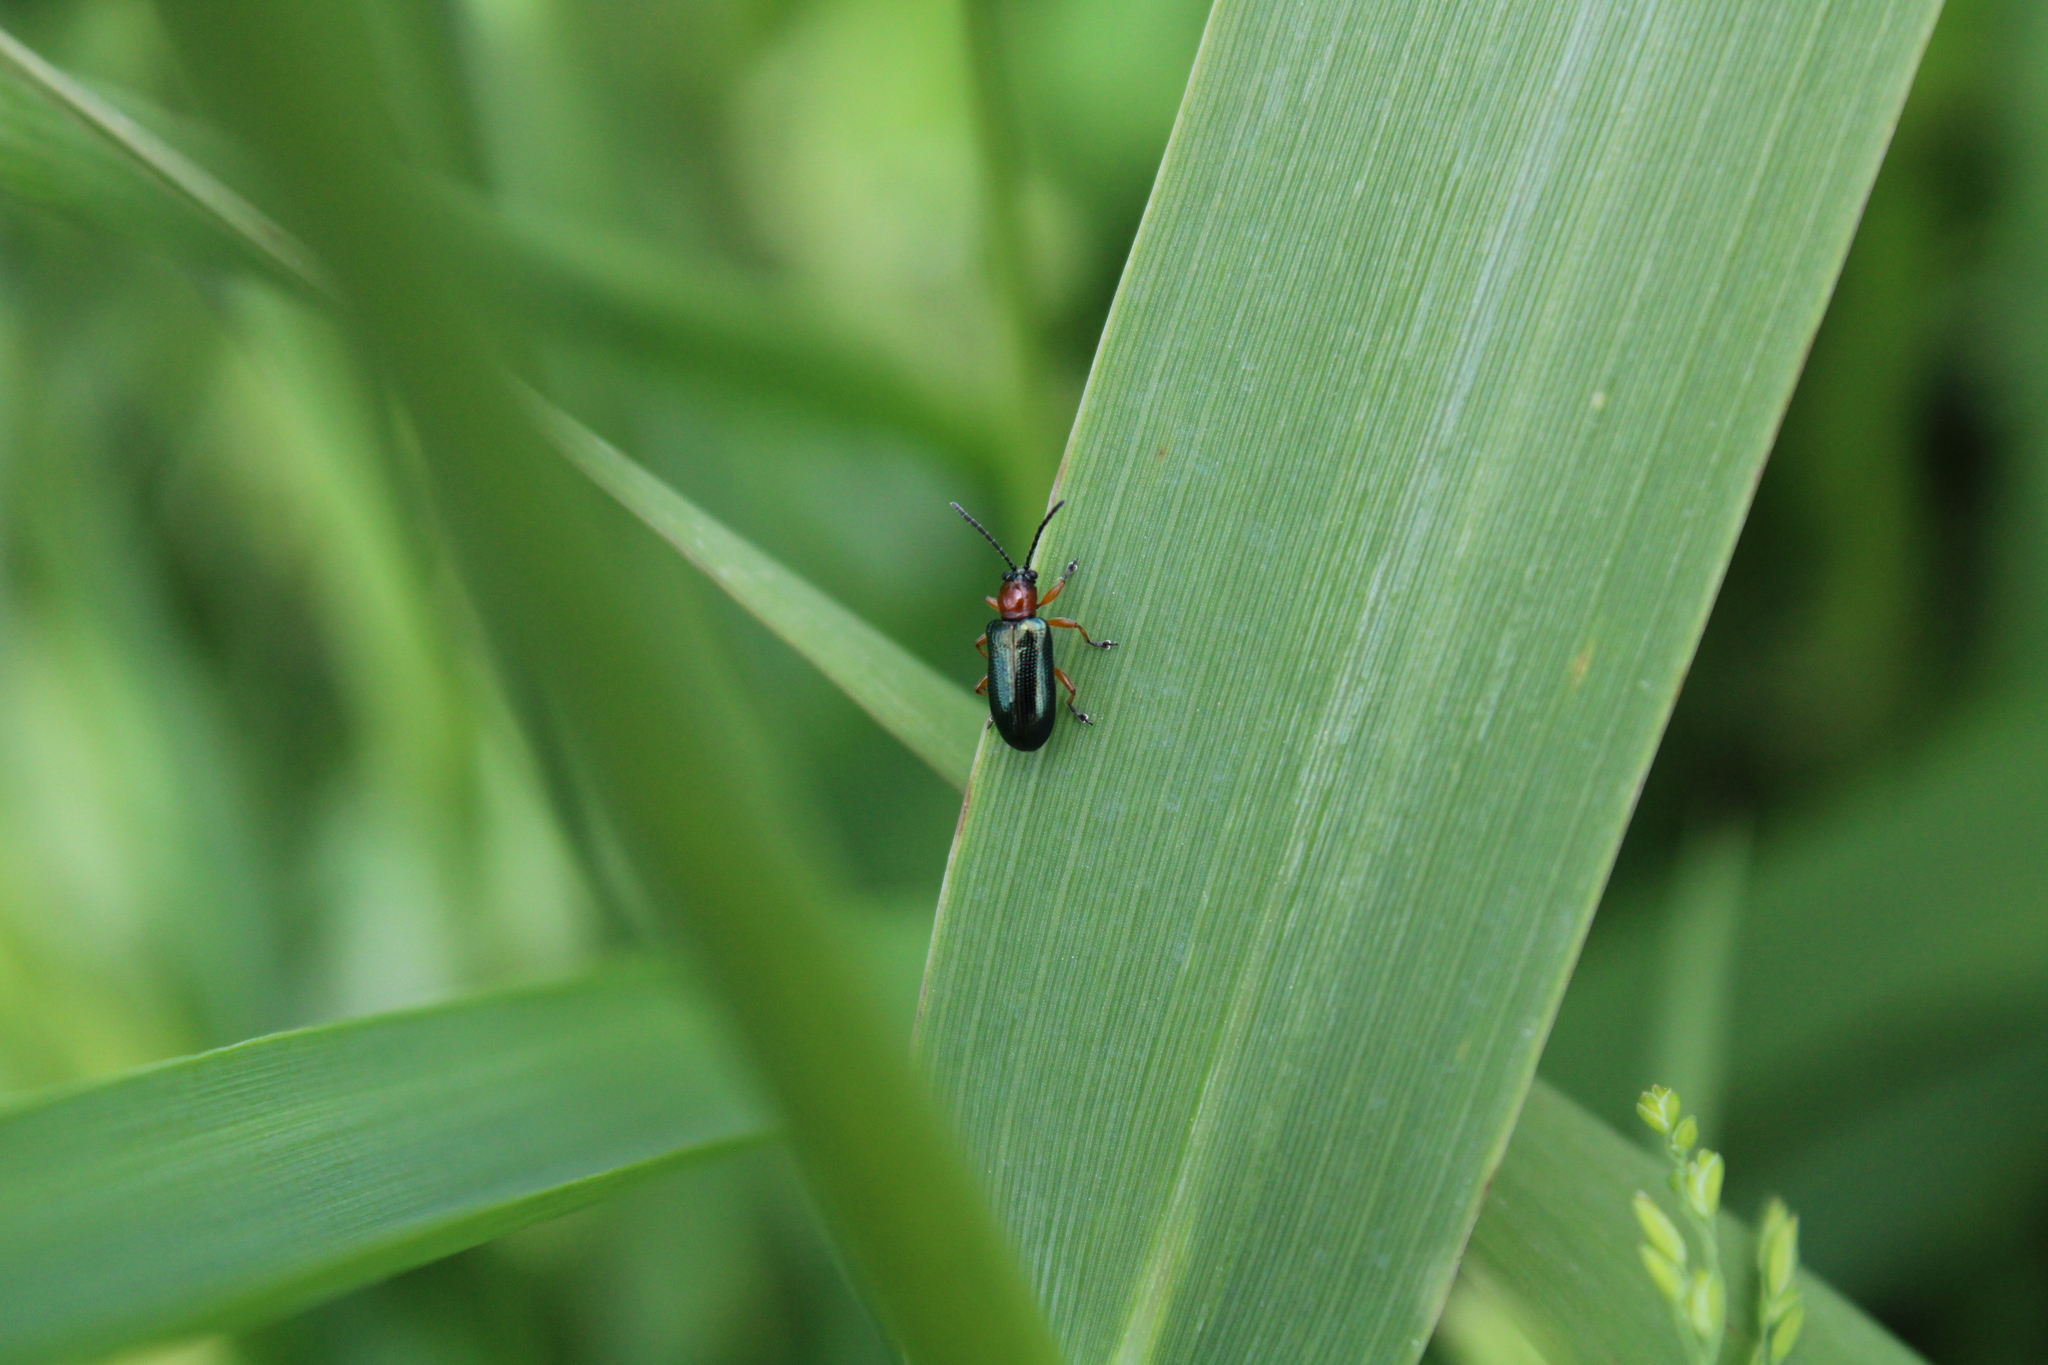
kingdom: Animalia
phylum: Arthropoda
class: Insecta
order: Coleoptera
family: Chrysomelidae
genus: Oulema
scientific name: Oulema melanopus
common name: Cereal leaf beetle
